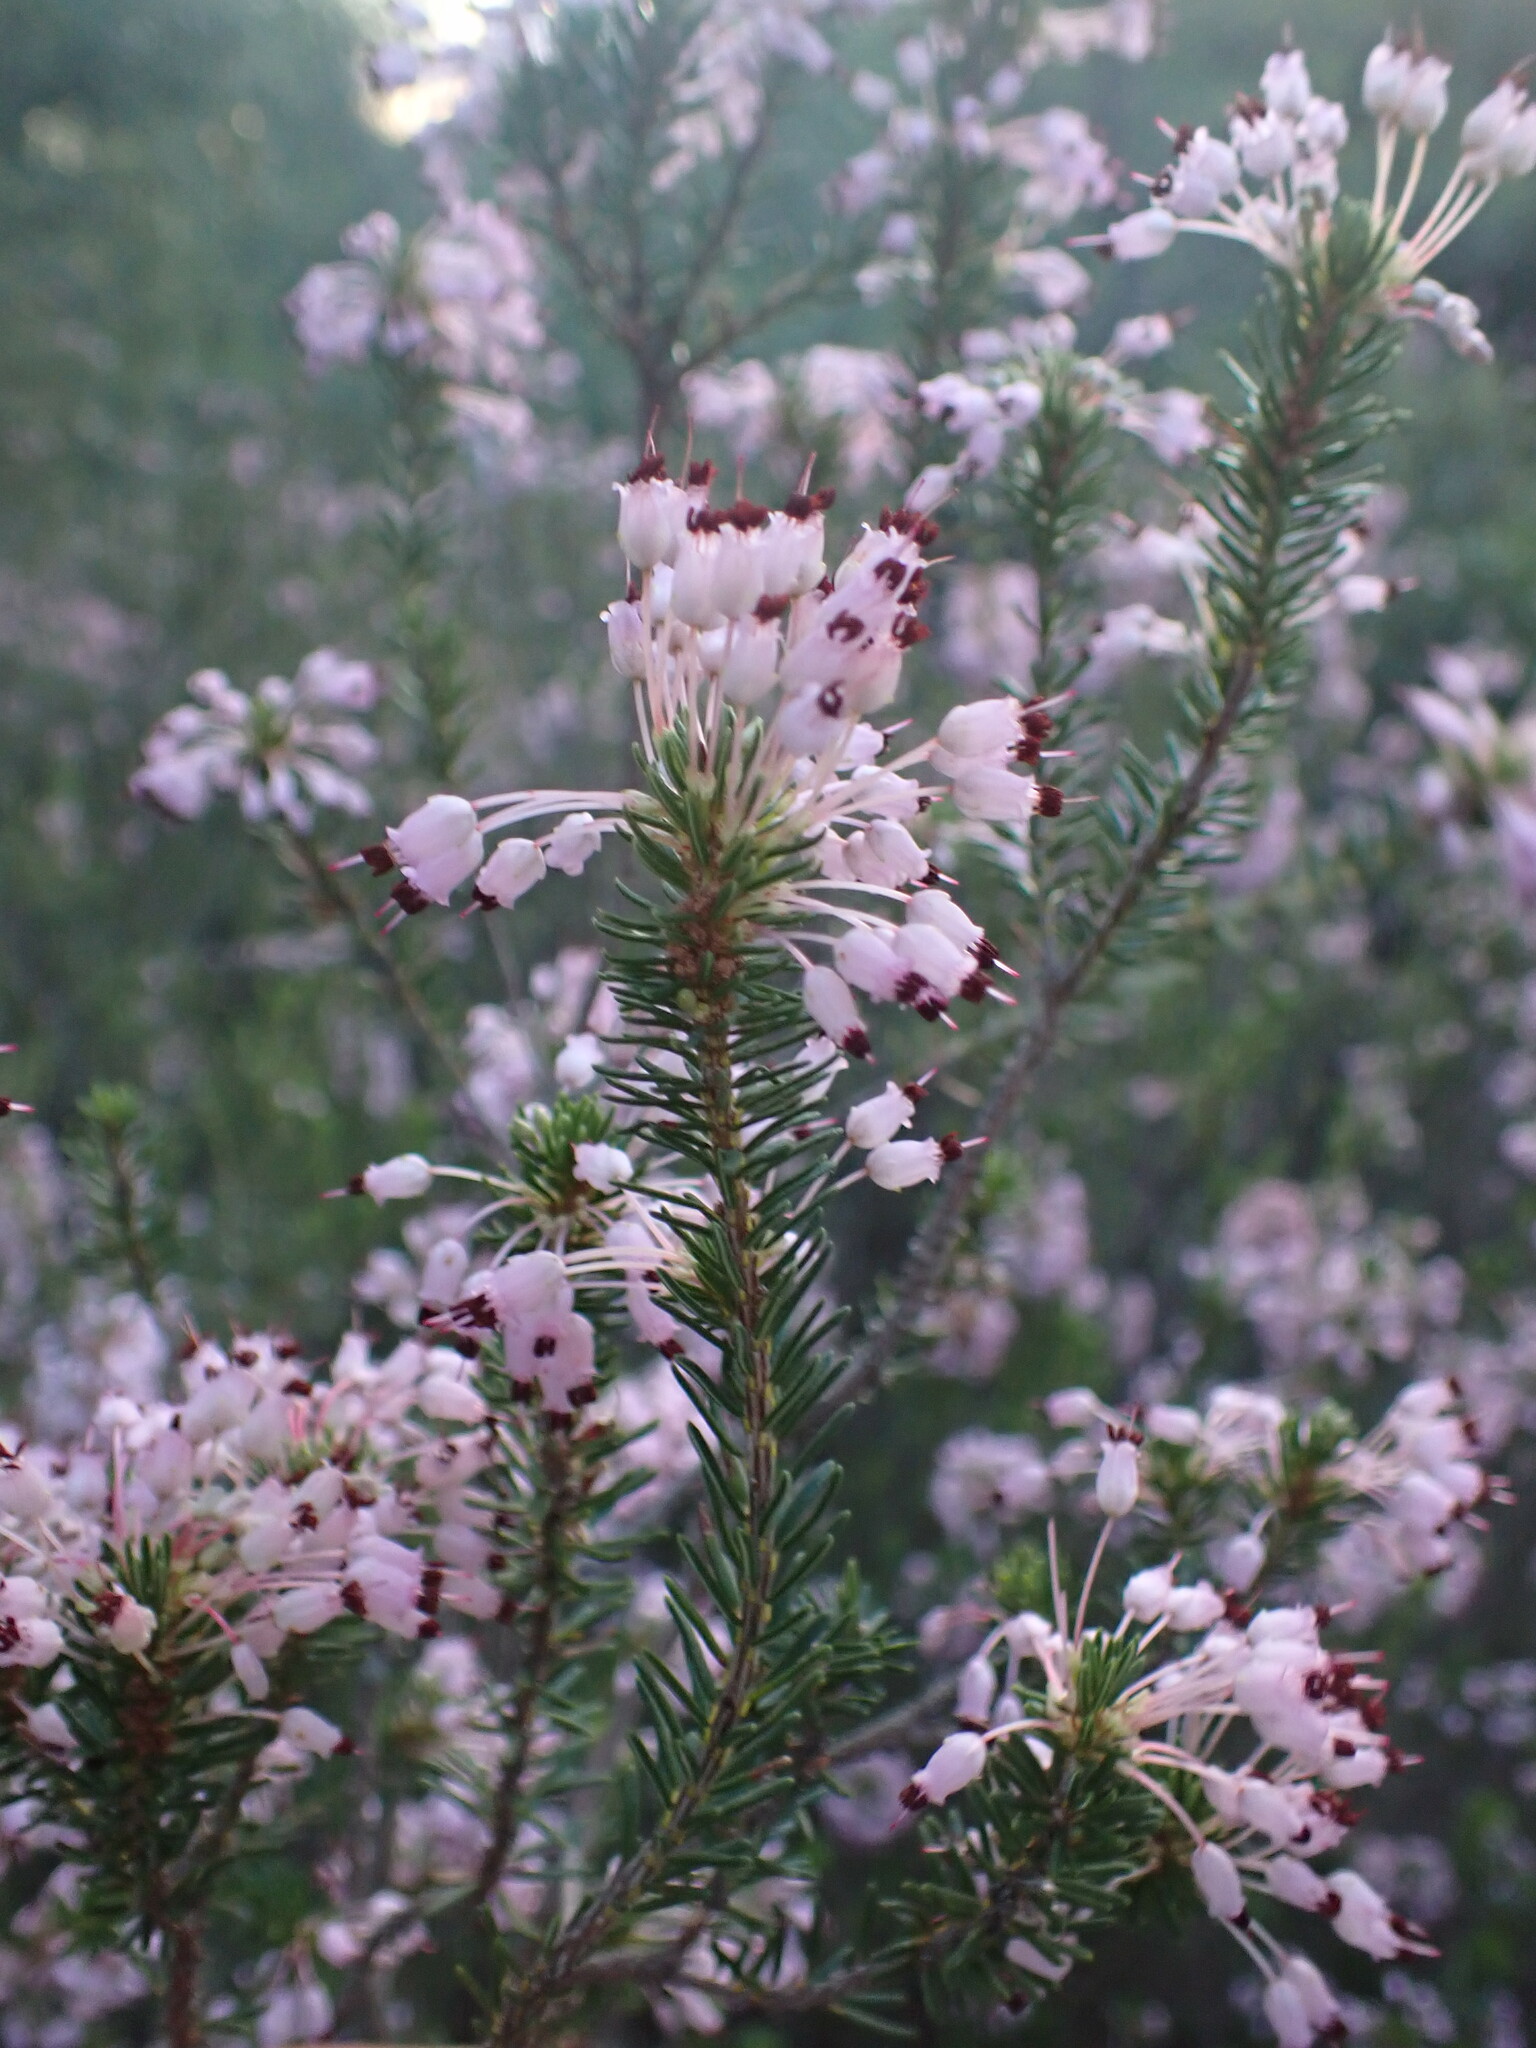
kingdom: Plantae
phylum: Tracheophyta
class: Magnoliopsida
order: Ericales
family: Ericaceae
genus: Erica
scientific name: Erica multiflora
